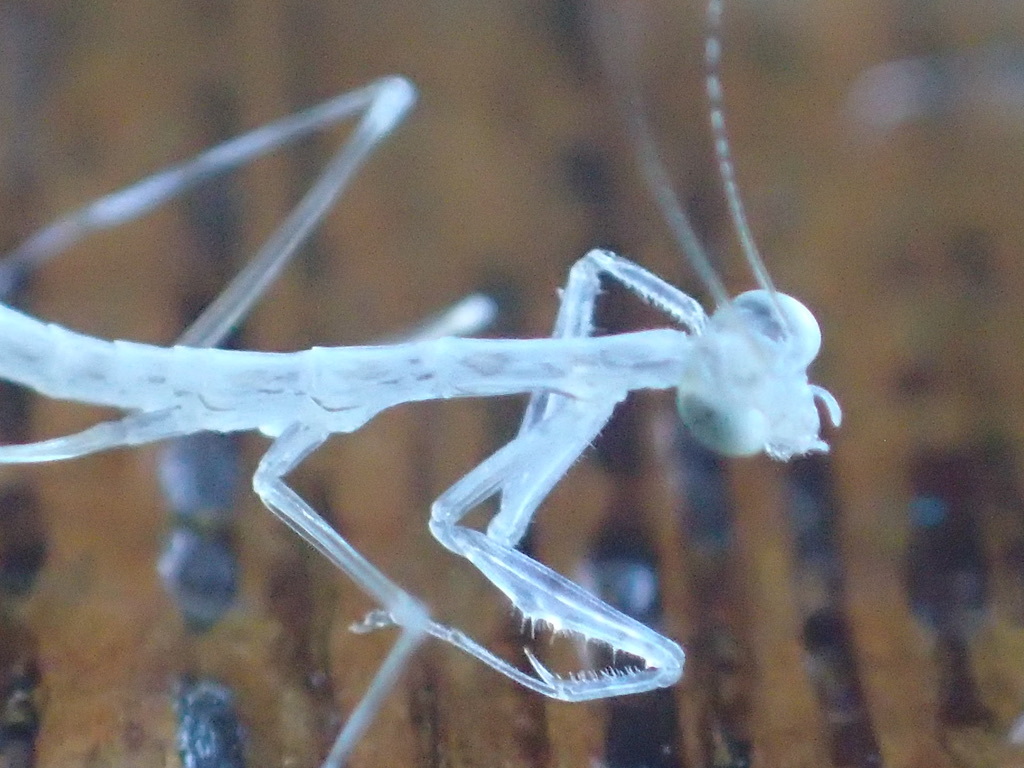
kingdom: Animalia
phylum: Arthropoda
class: Insecta
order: Mantodea
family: Nanomantidae
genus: Kongobatha
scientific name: Kongobatha diademata
